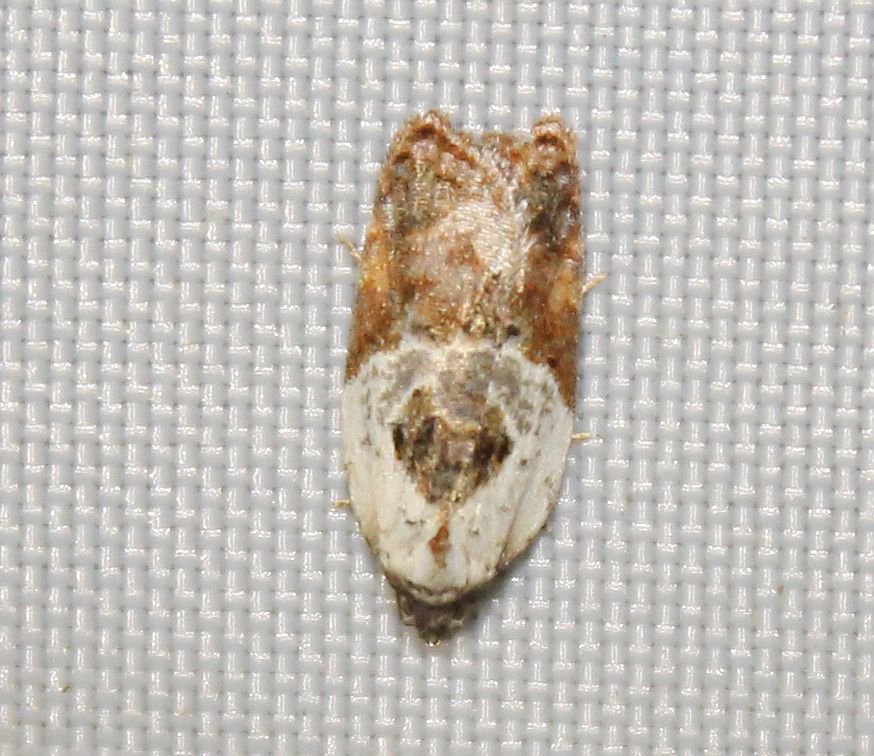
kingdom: Animalia
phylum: Arthropoda
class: Insecta
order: Lepidoptera
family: Tortricidae
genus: Acleris
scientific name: Acleris variegana
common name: Garden rose tortrix
